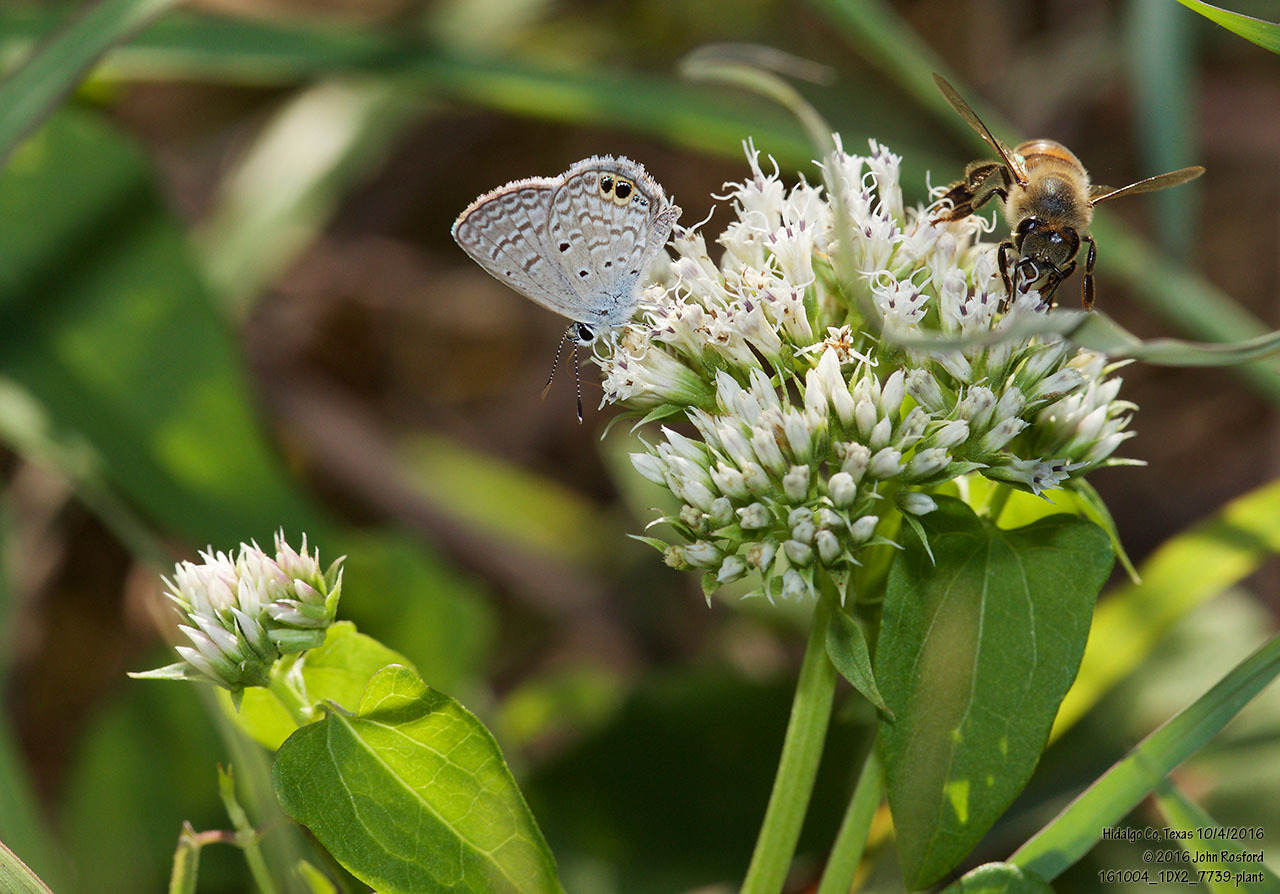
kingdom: Plantae
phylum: Tracheophyta
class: Magnoliopsida
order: Asterales
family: Asteraceae
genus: Mikania
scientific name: Mikania scandens
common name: Climbing hempvine
